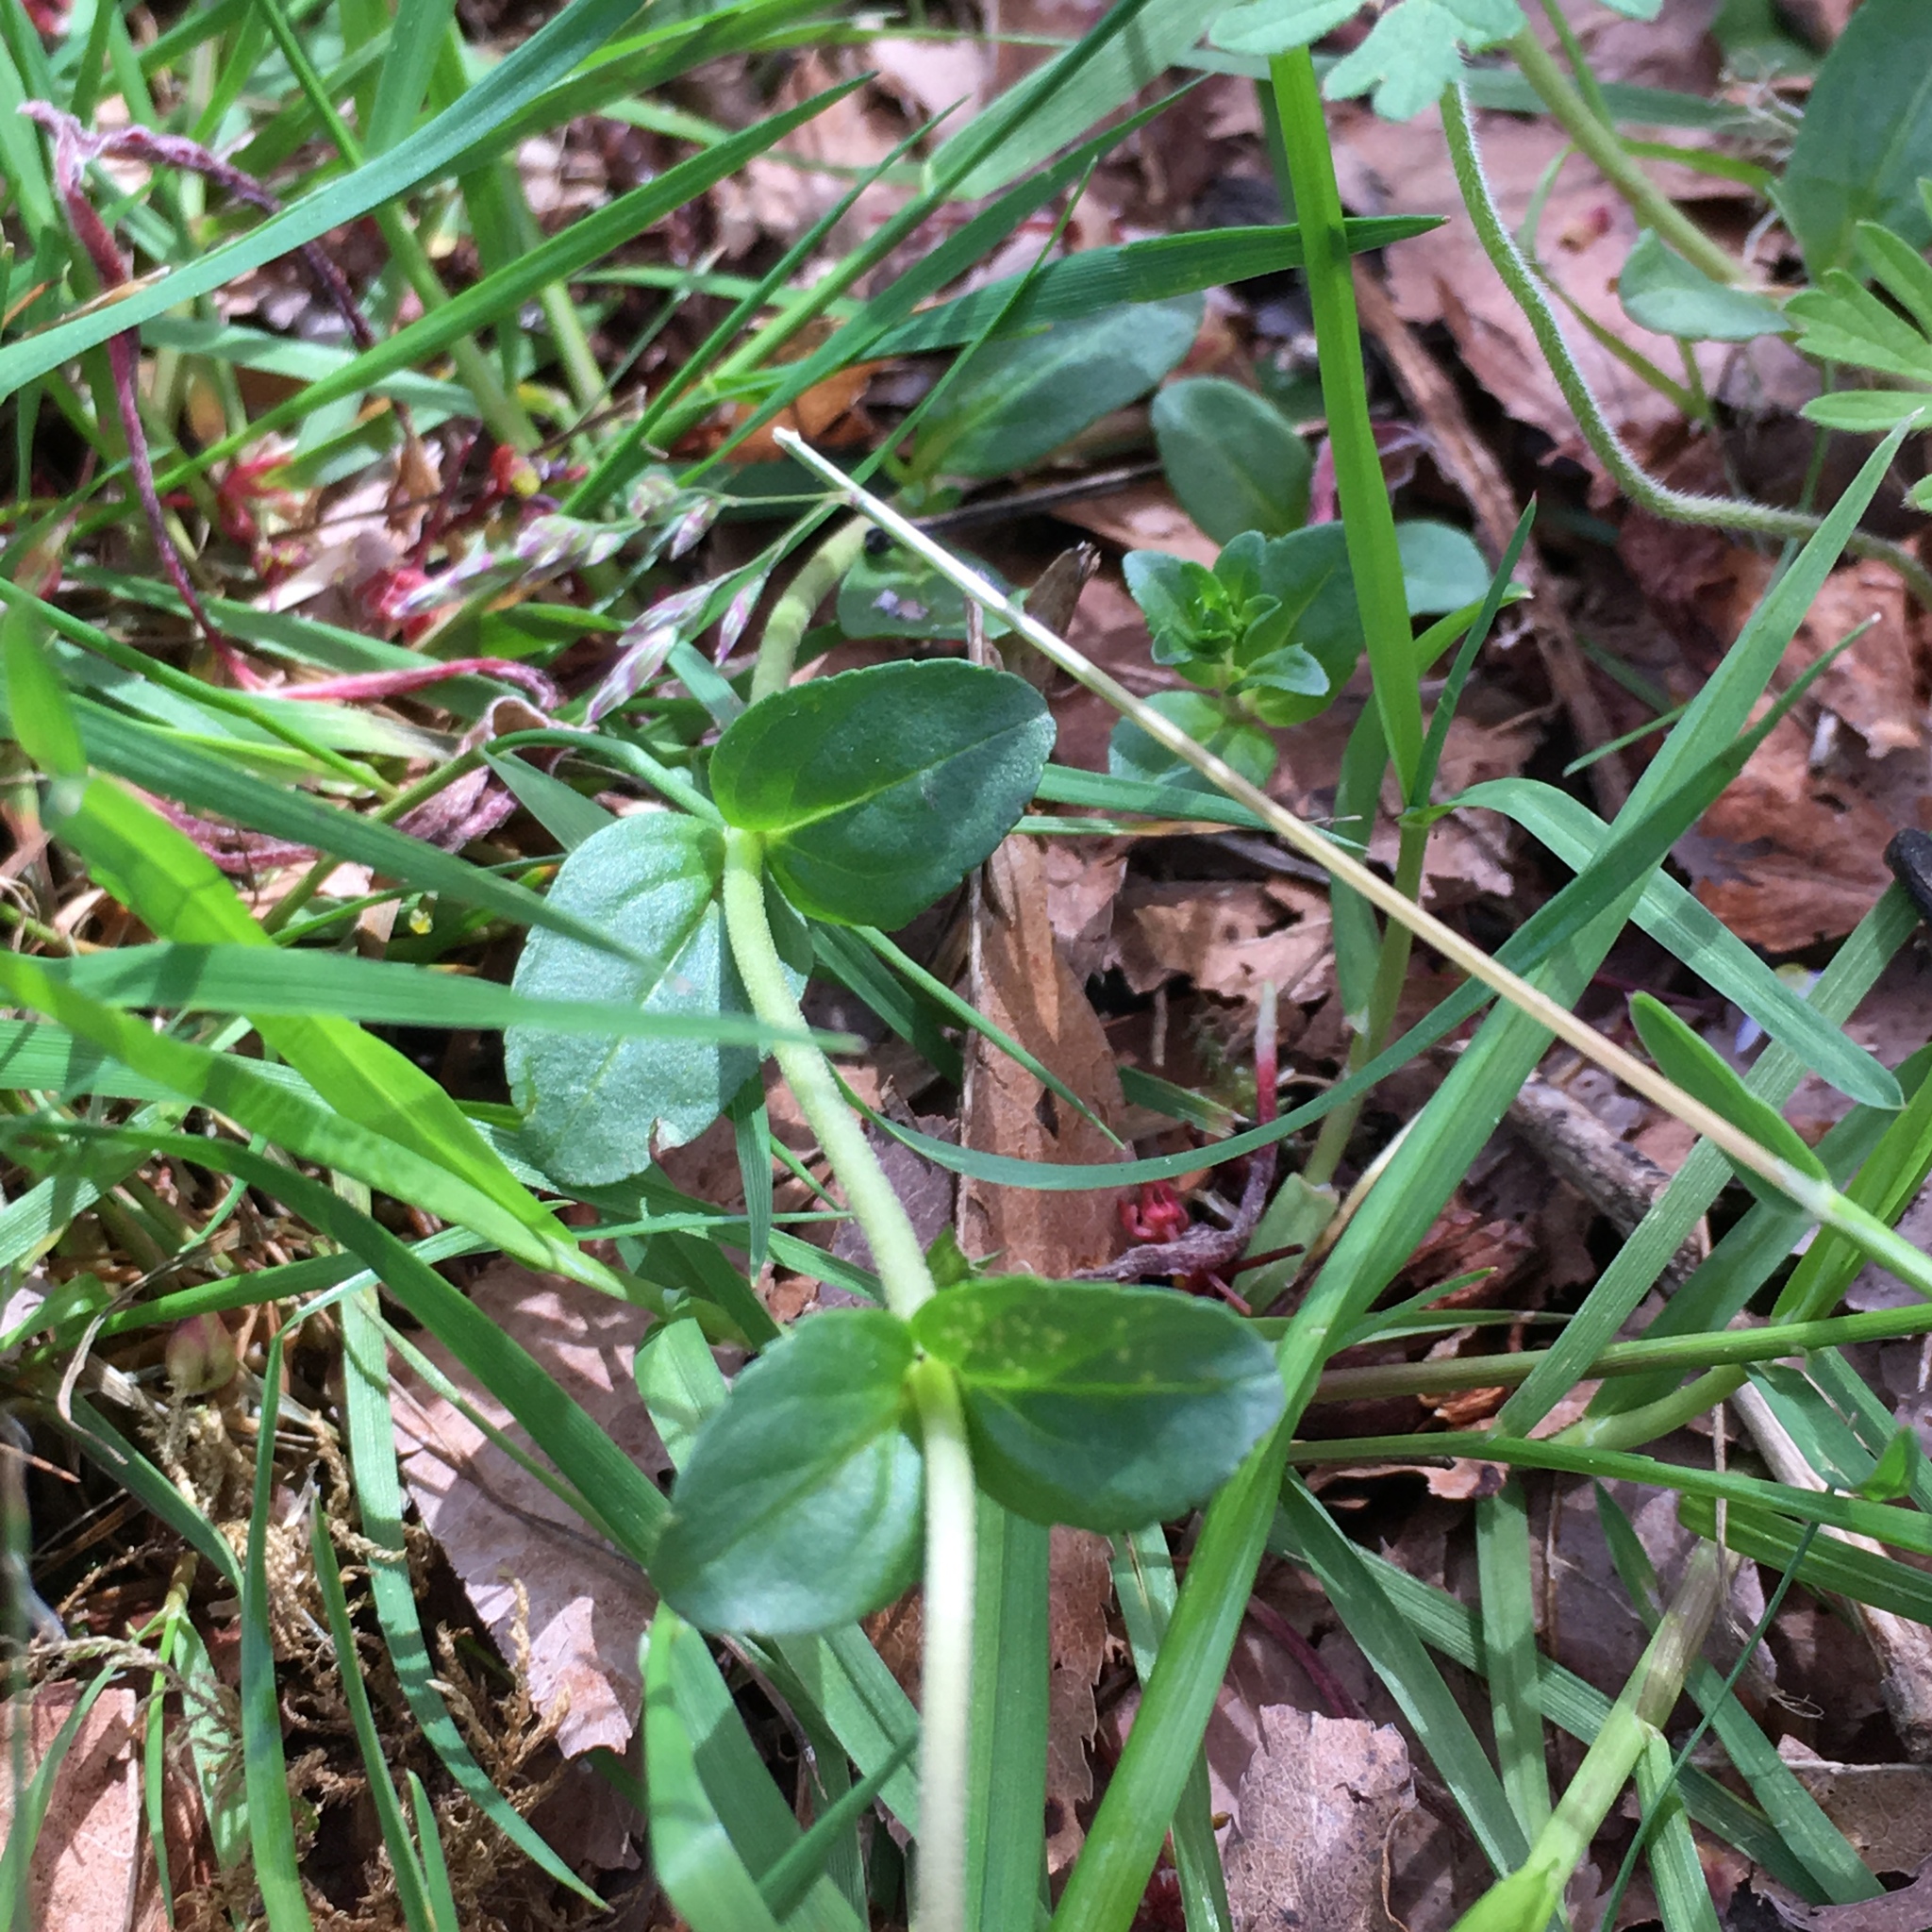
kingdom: Plantae
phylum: Tracheophyta
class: Magnoliopsida
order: Lamiales
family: Plantaginaceae
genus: Veronica
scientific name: Veronica serpyllifolia
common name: Thyme-leaved speedwell
